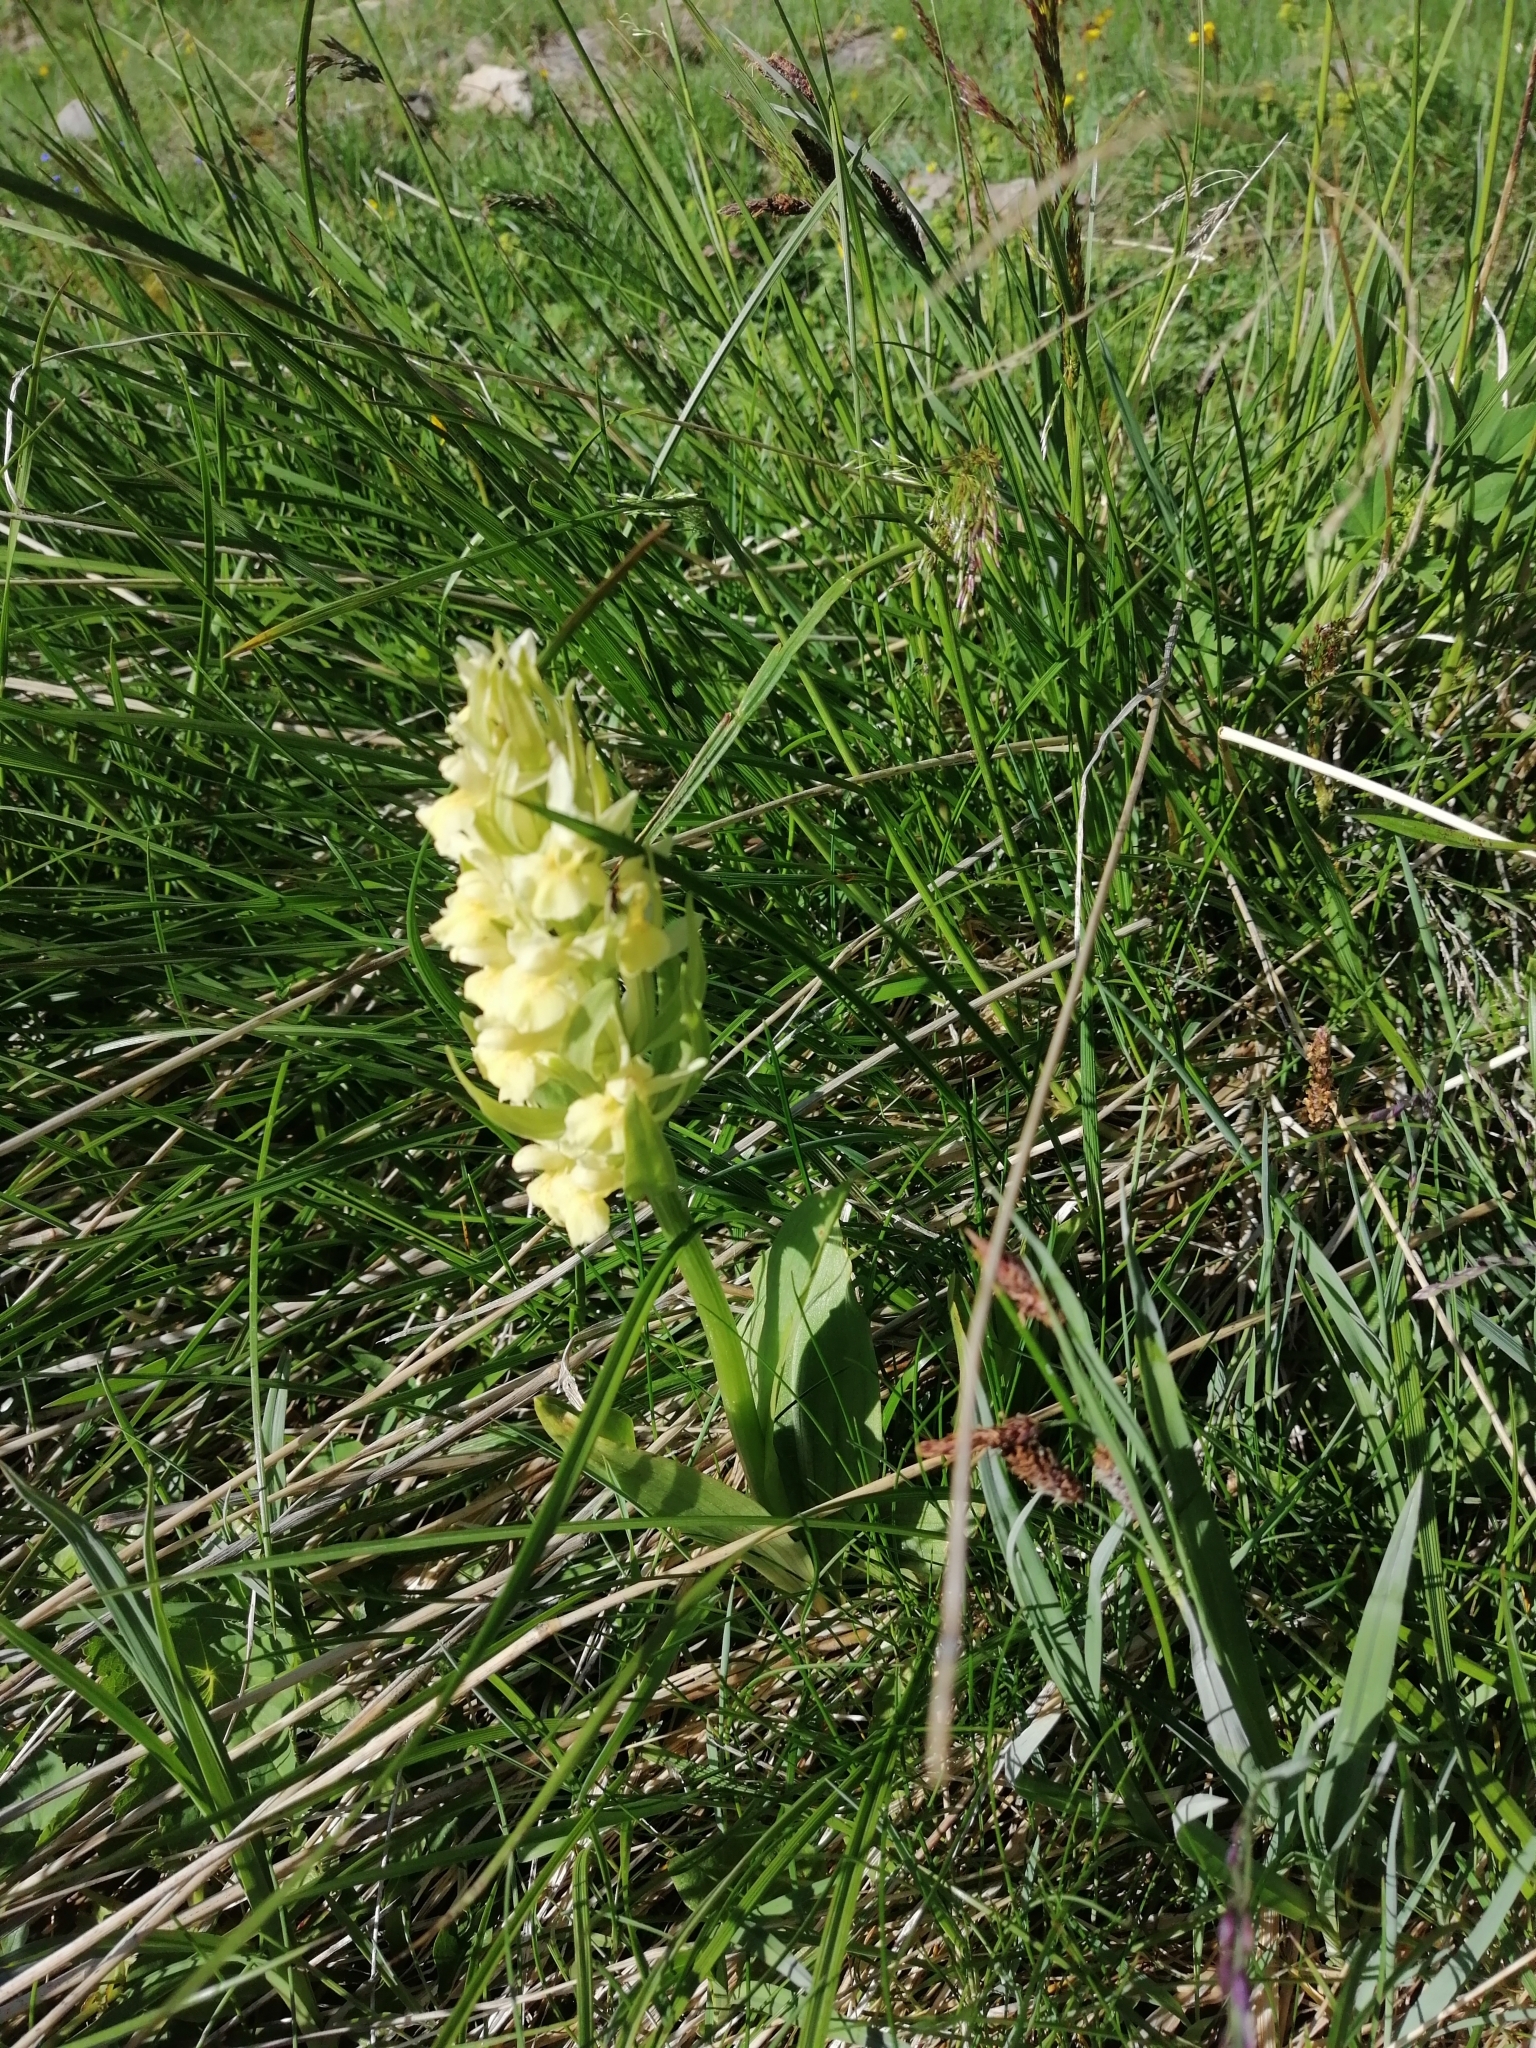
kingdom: Plantae
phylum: Tracheophyta
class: Liliopsida
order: Asparagales
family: Orchidaceae
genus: Dactylorhiza
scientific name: Dactylorhiza sambucina
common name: Elder-flowered orchid
